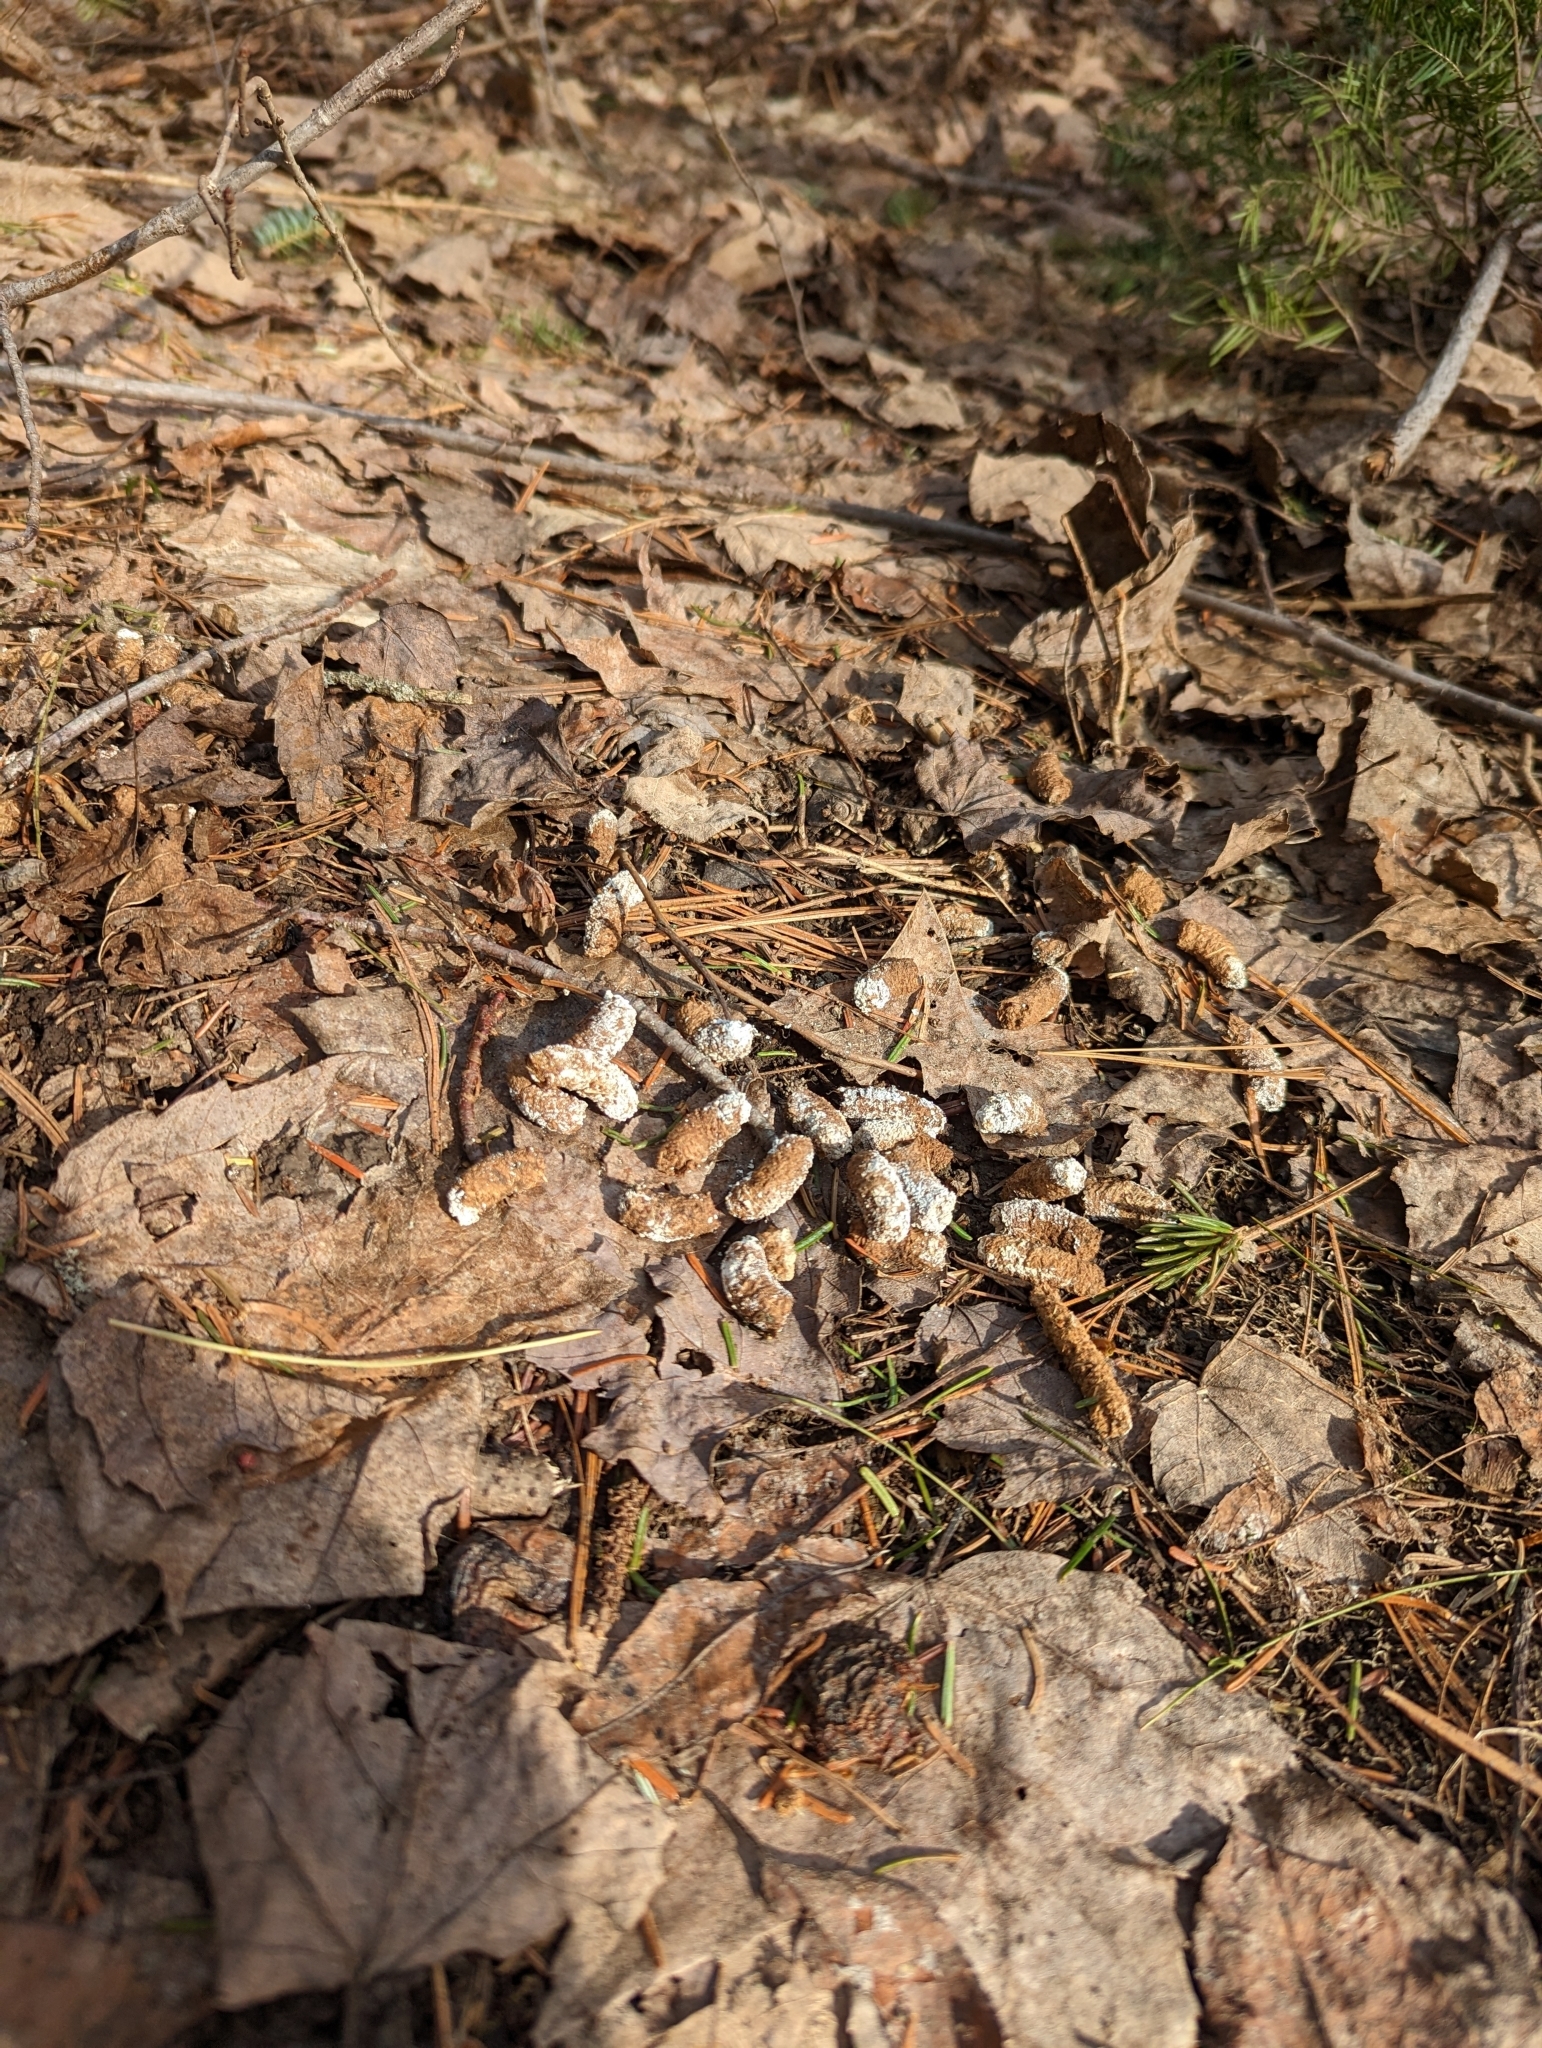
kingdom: Animalia
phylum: Chordata
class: Aves
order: Galliformes
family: Phasianidae
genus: Bonasa
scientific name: Bonasa umbellus
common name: Ruffed grouse
